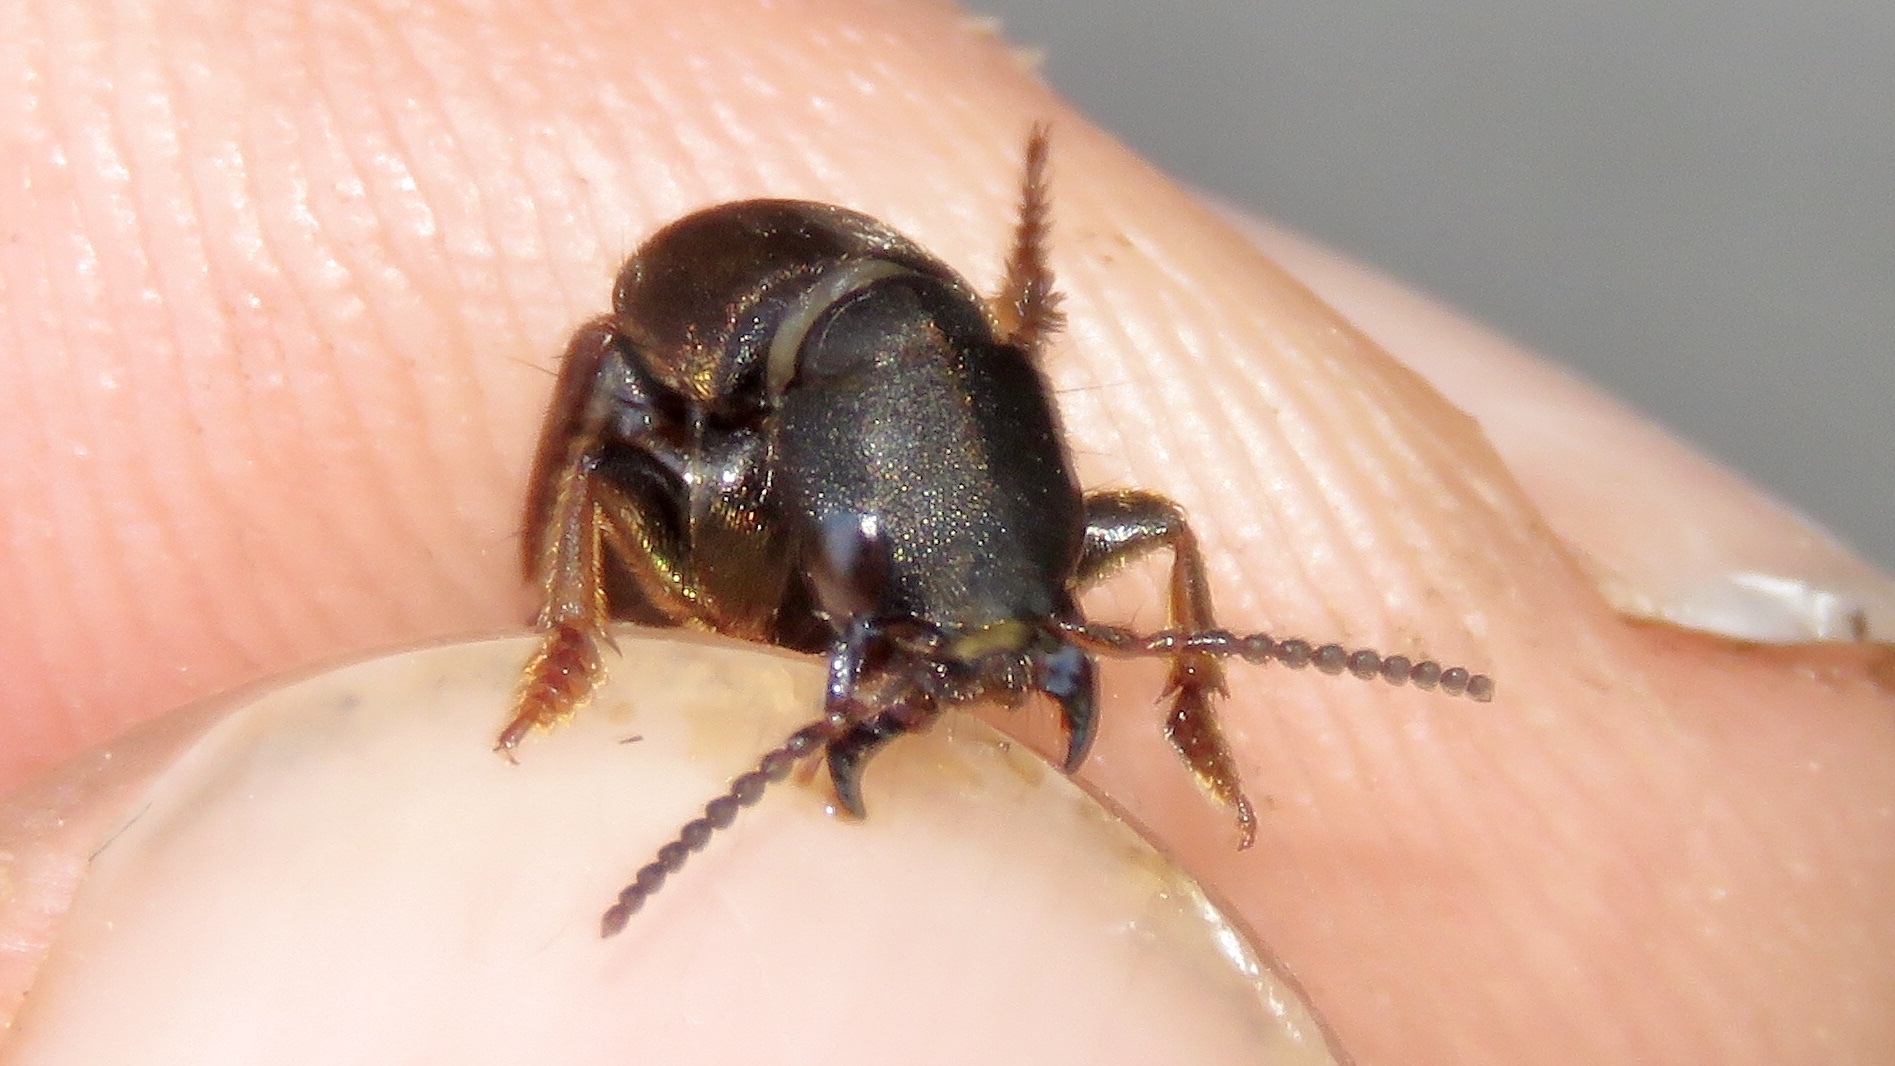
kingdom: Animalia
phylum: Arthropoda
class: Insecta
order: Coleoptera
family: Staphylinidae
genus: Platydracus
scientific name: Platydracus mysticus
